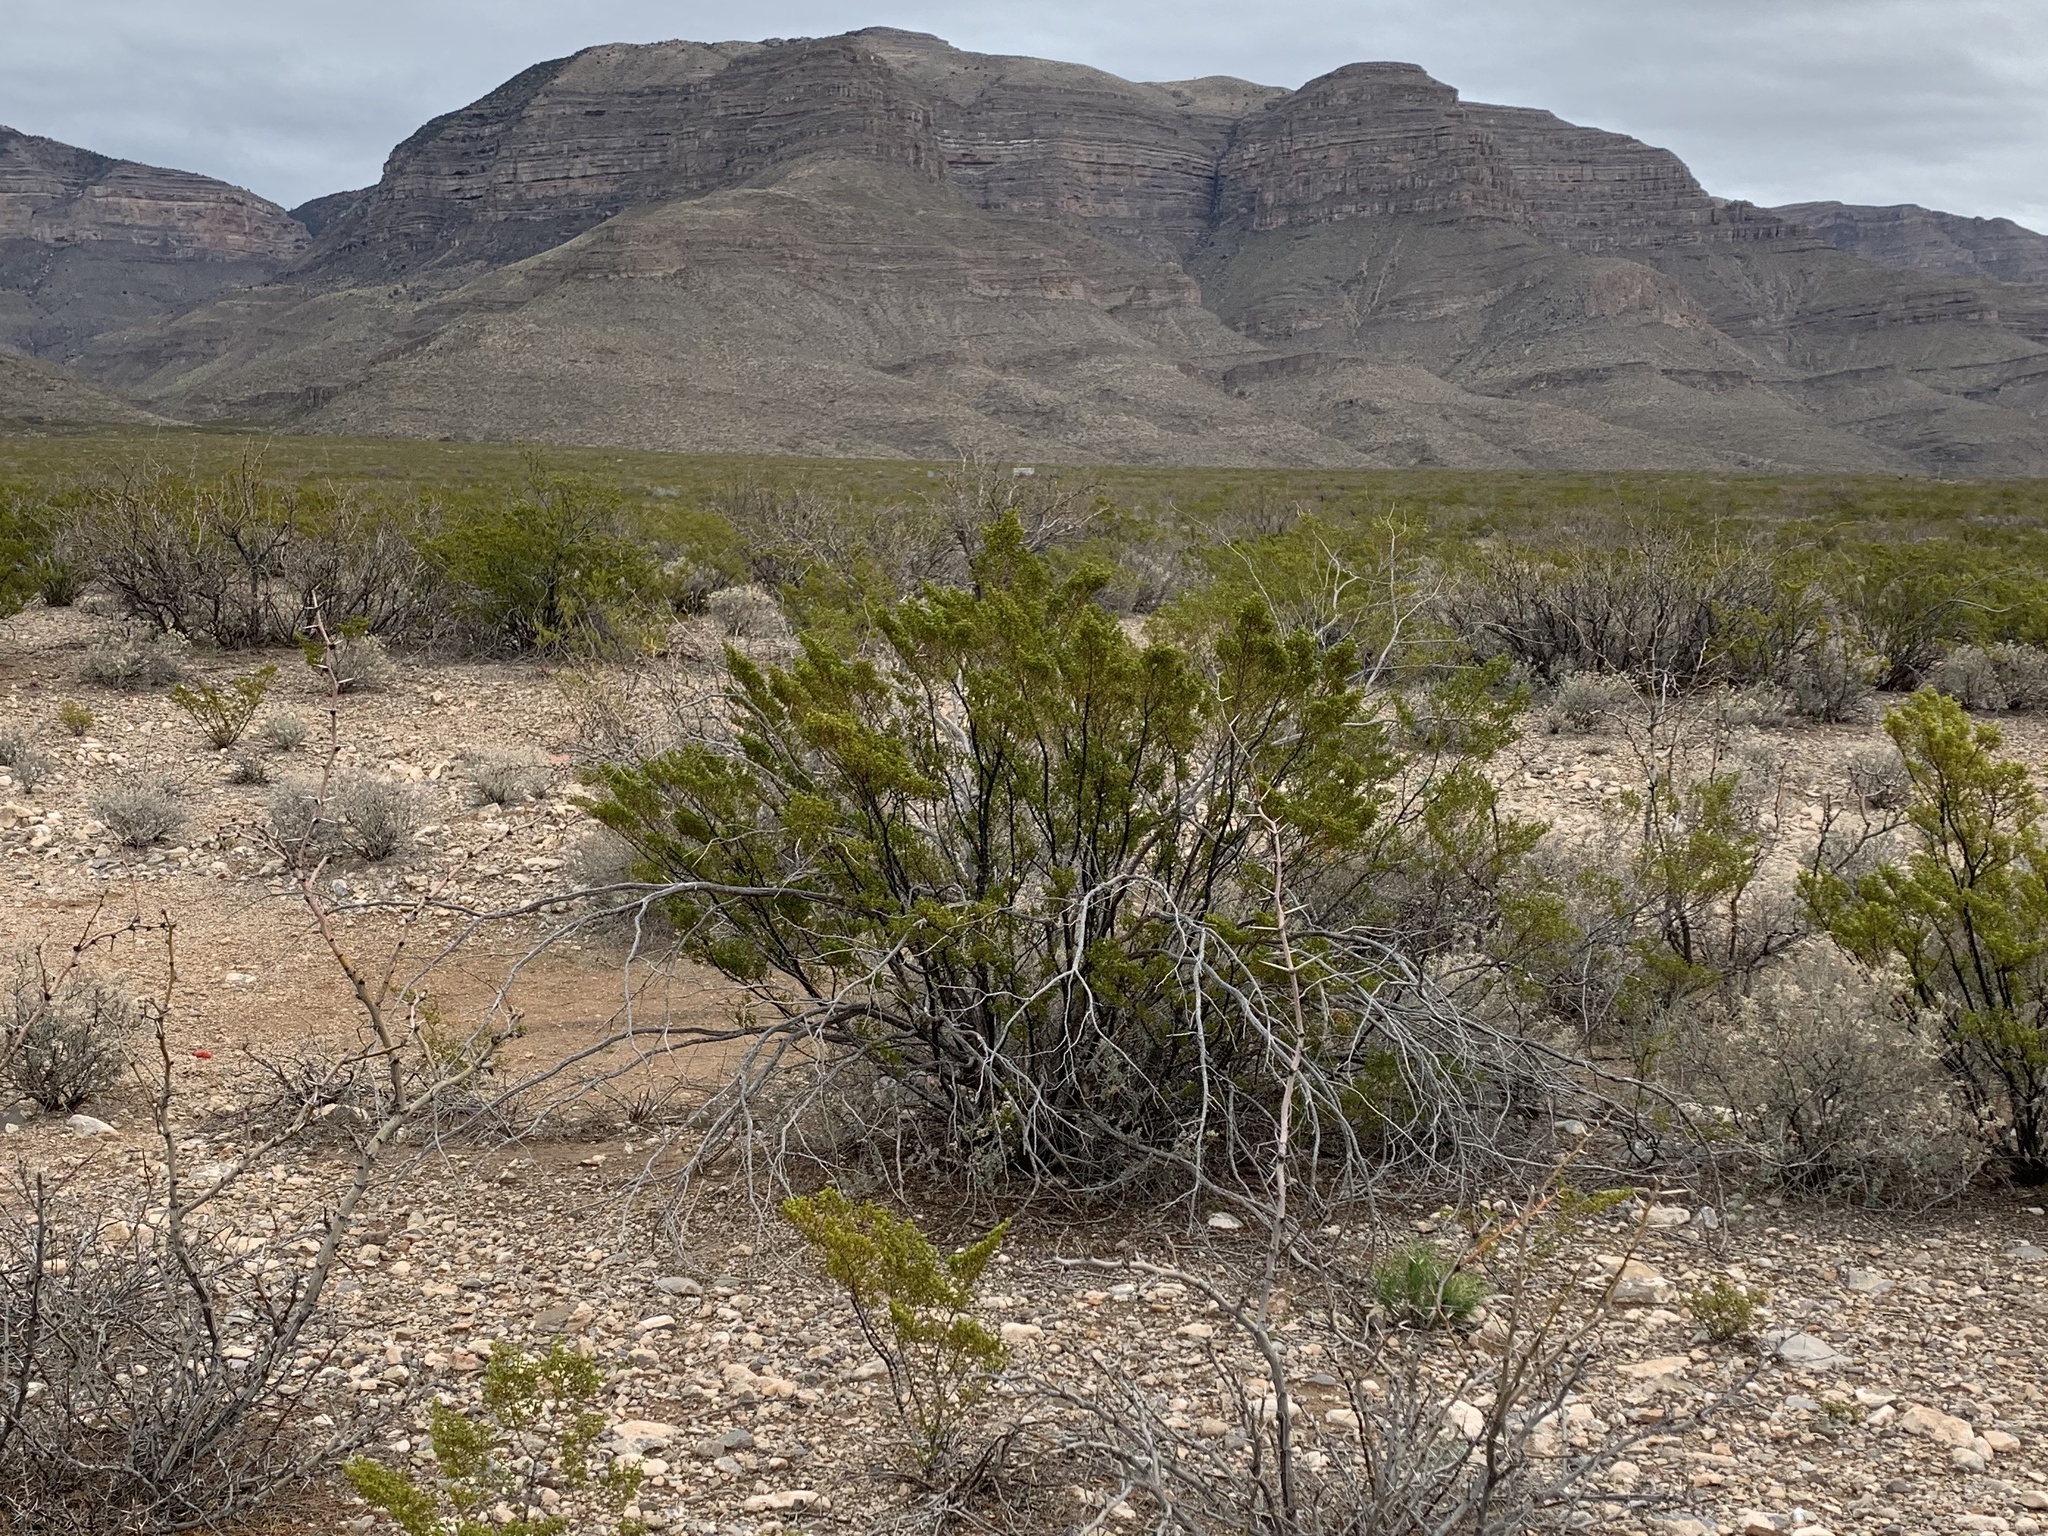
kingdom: Plantae
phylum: Tracheophyta
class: Magnoliopsida
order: Zygophyllales
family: Zygophyllaceae
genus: Larrea
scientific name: Larrea tridentata
